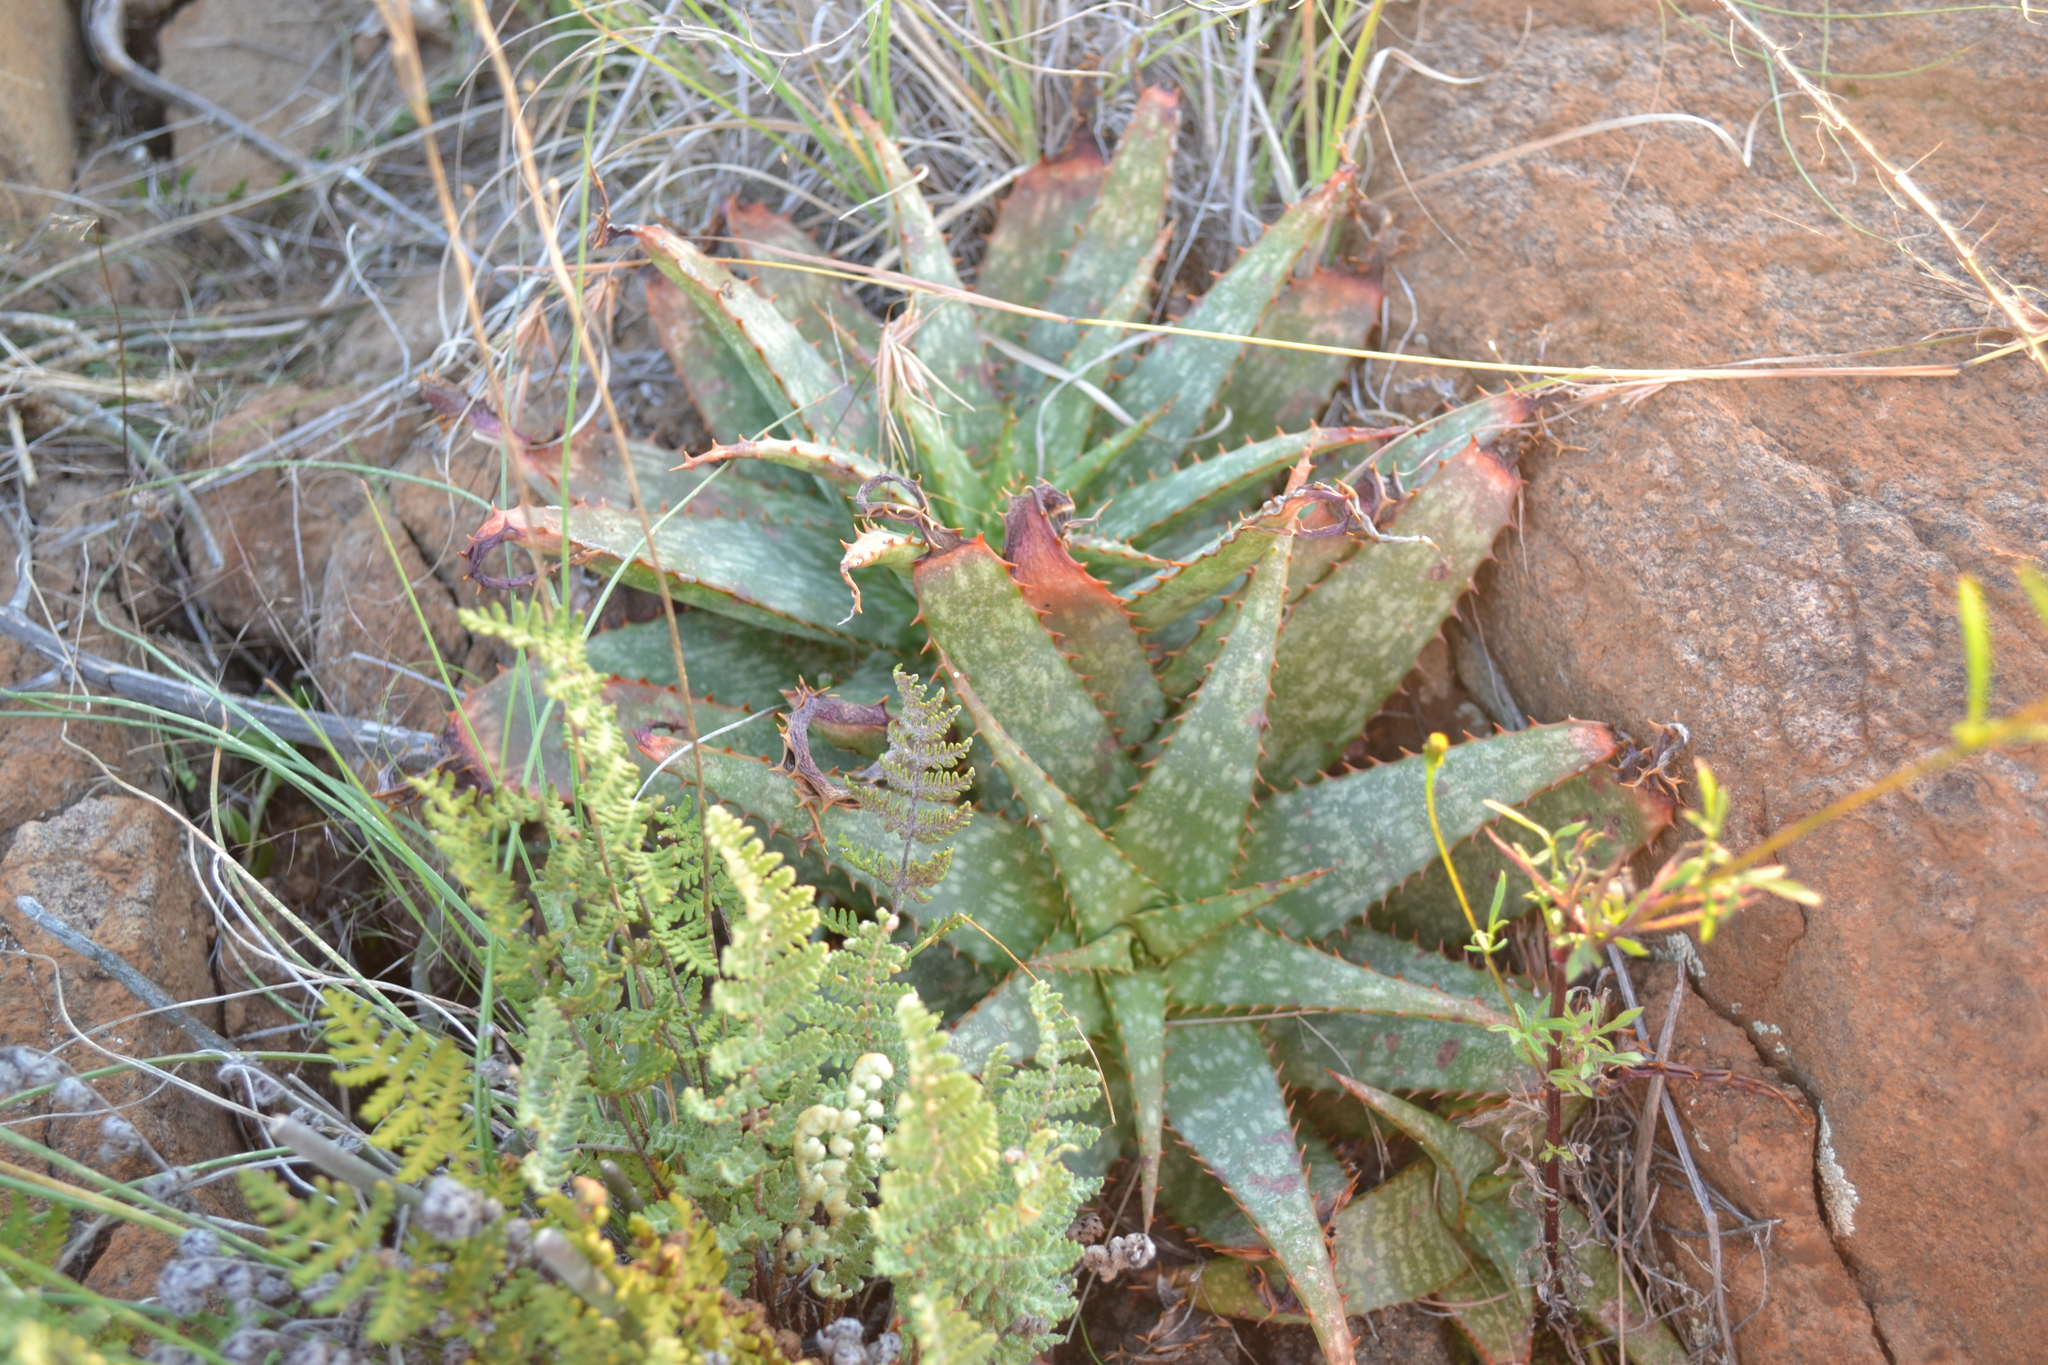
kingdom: Plantae
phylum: Tracheophyta
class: Liliopsida
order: Asparagales
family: Asphodelaceae
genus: Aloe
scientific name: Aloe grandidentata
